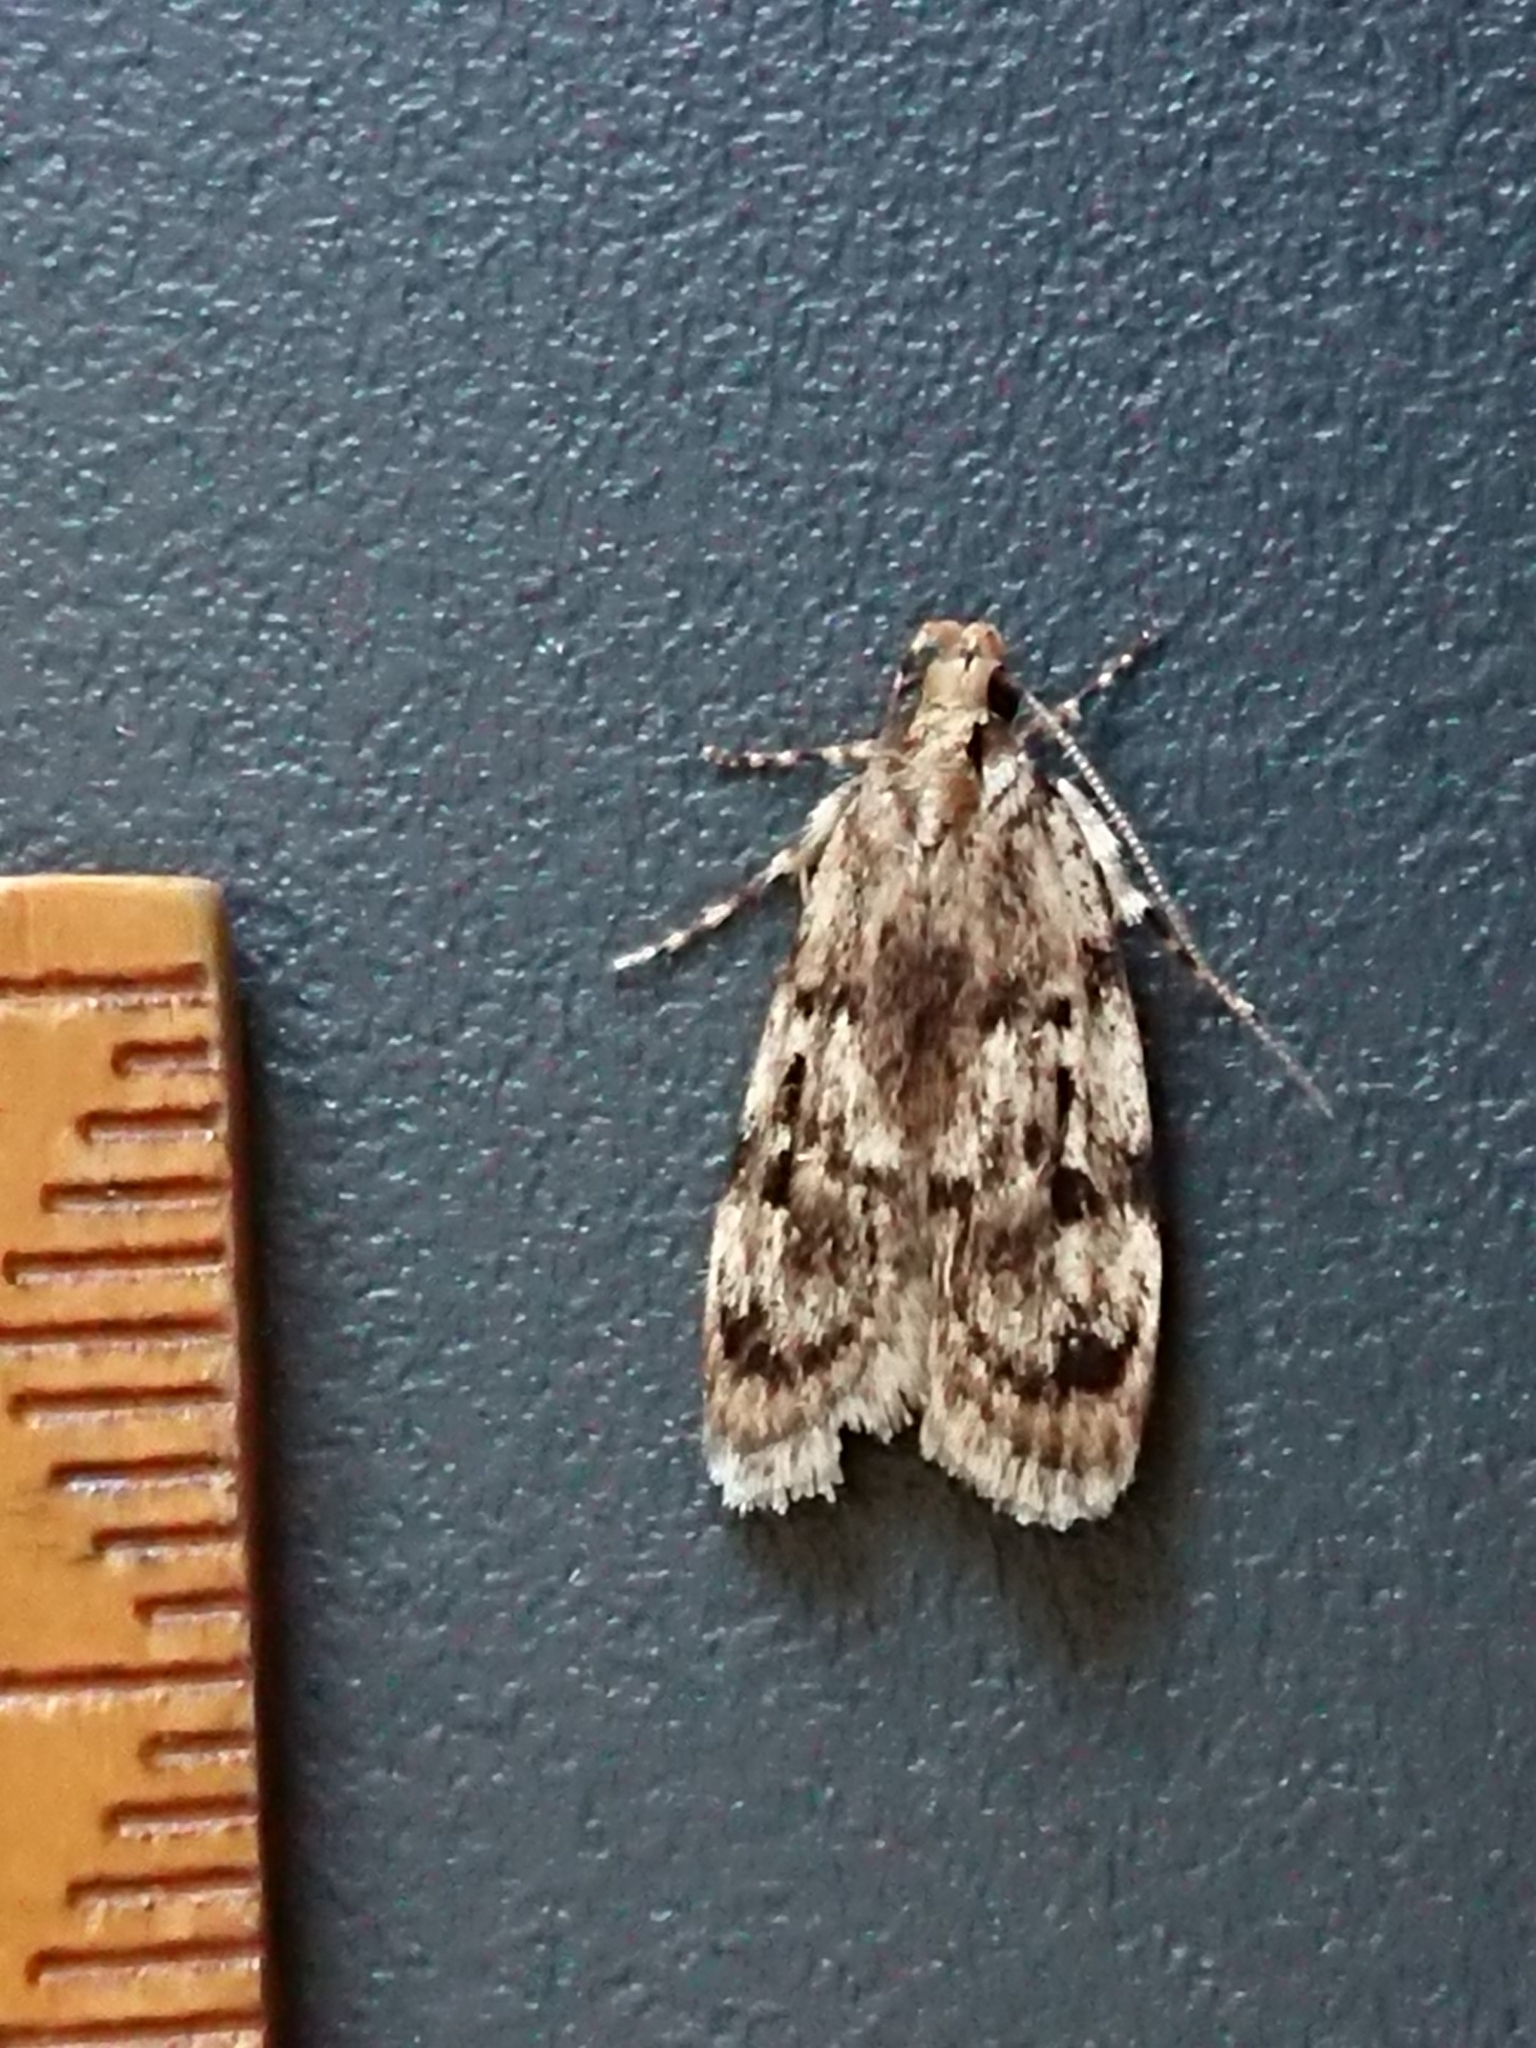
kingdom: Animalia
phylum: Arthropoda
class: Insecta
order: Lepidoptera
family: Oecophoridae
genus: Barea
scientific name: Barea exarcha
